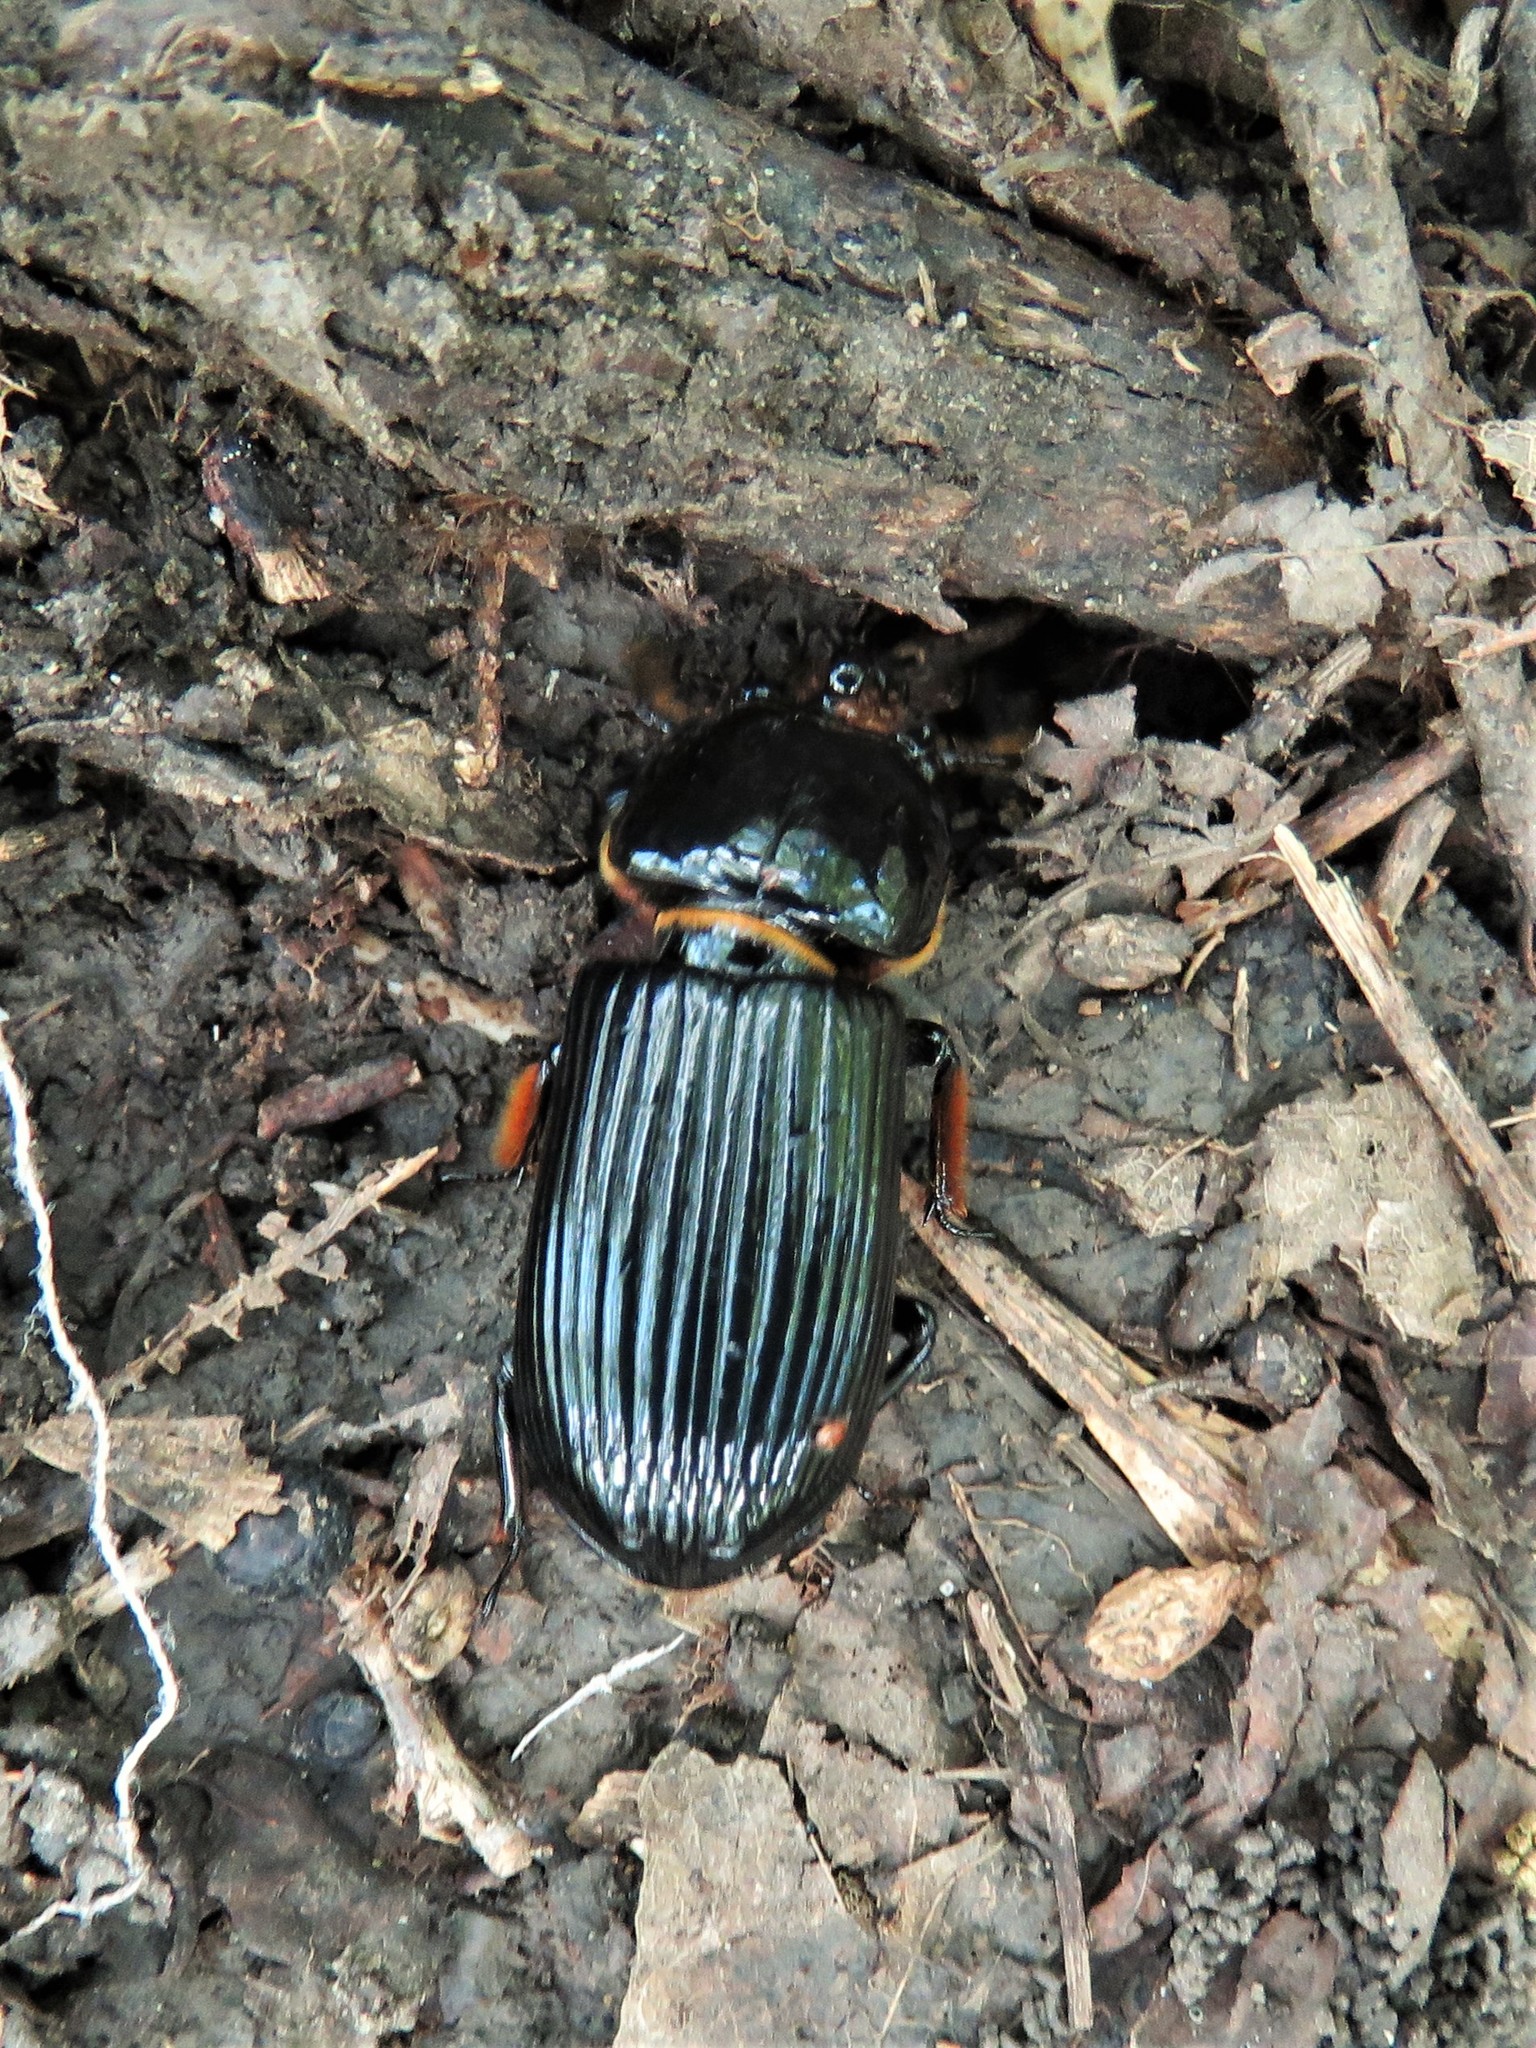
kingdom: Animalia
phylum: Arthropoda
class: Insecta
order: Coleoptera
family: Passalidae
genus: Odontotaenius
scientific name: Odontotaenius disjunctus
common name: Patent leather beetle
